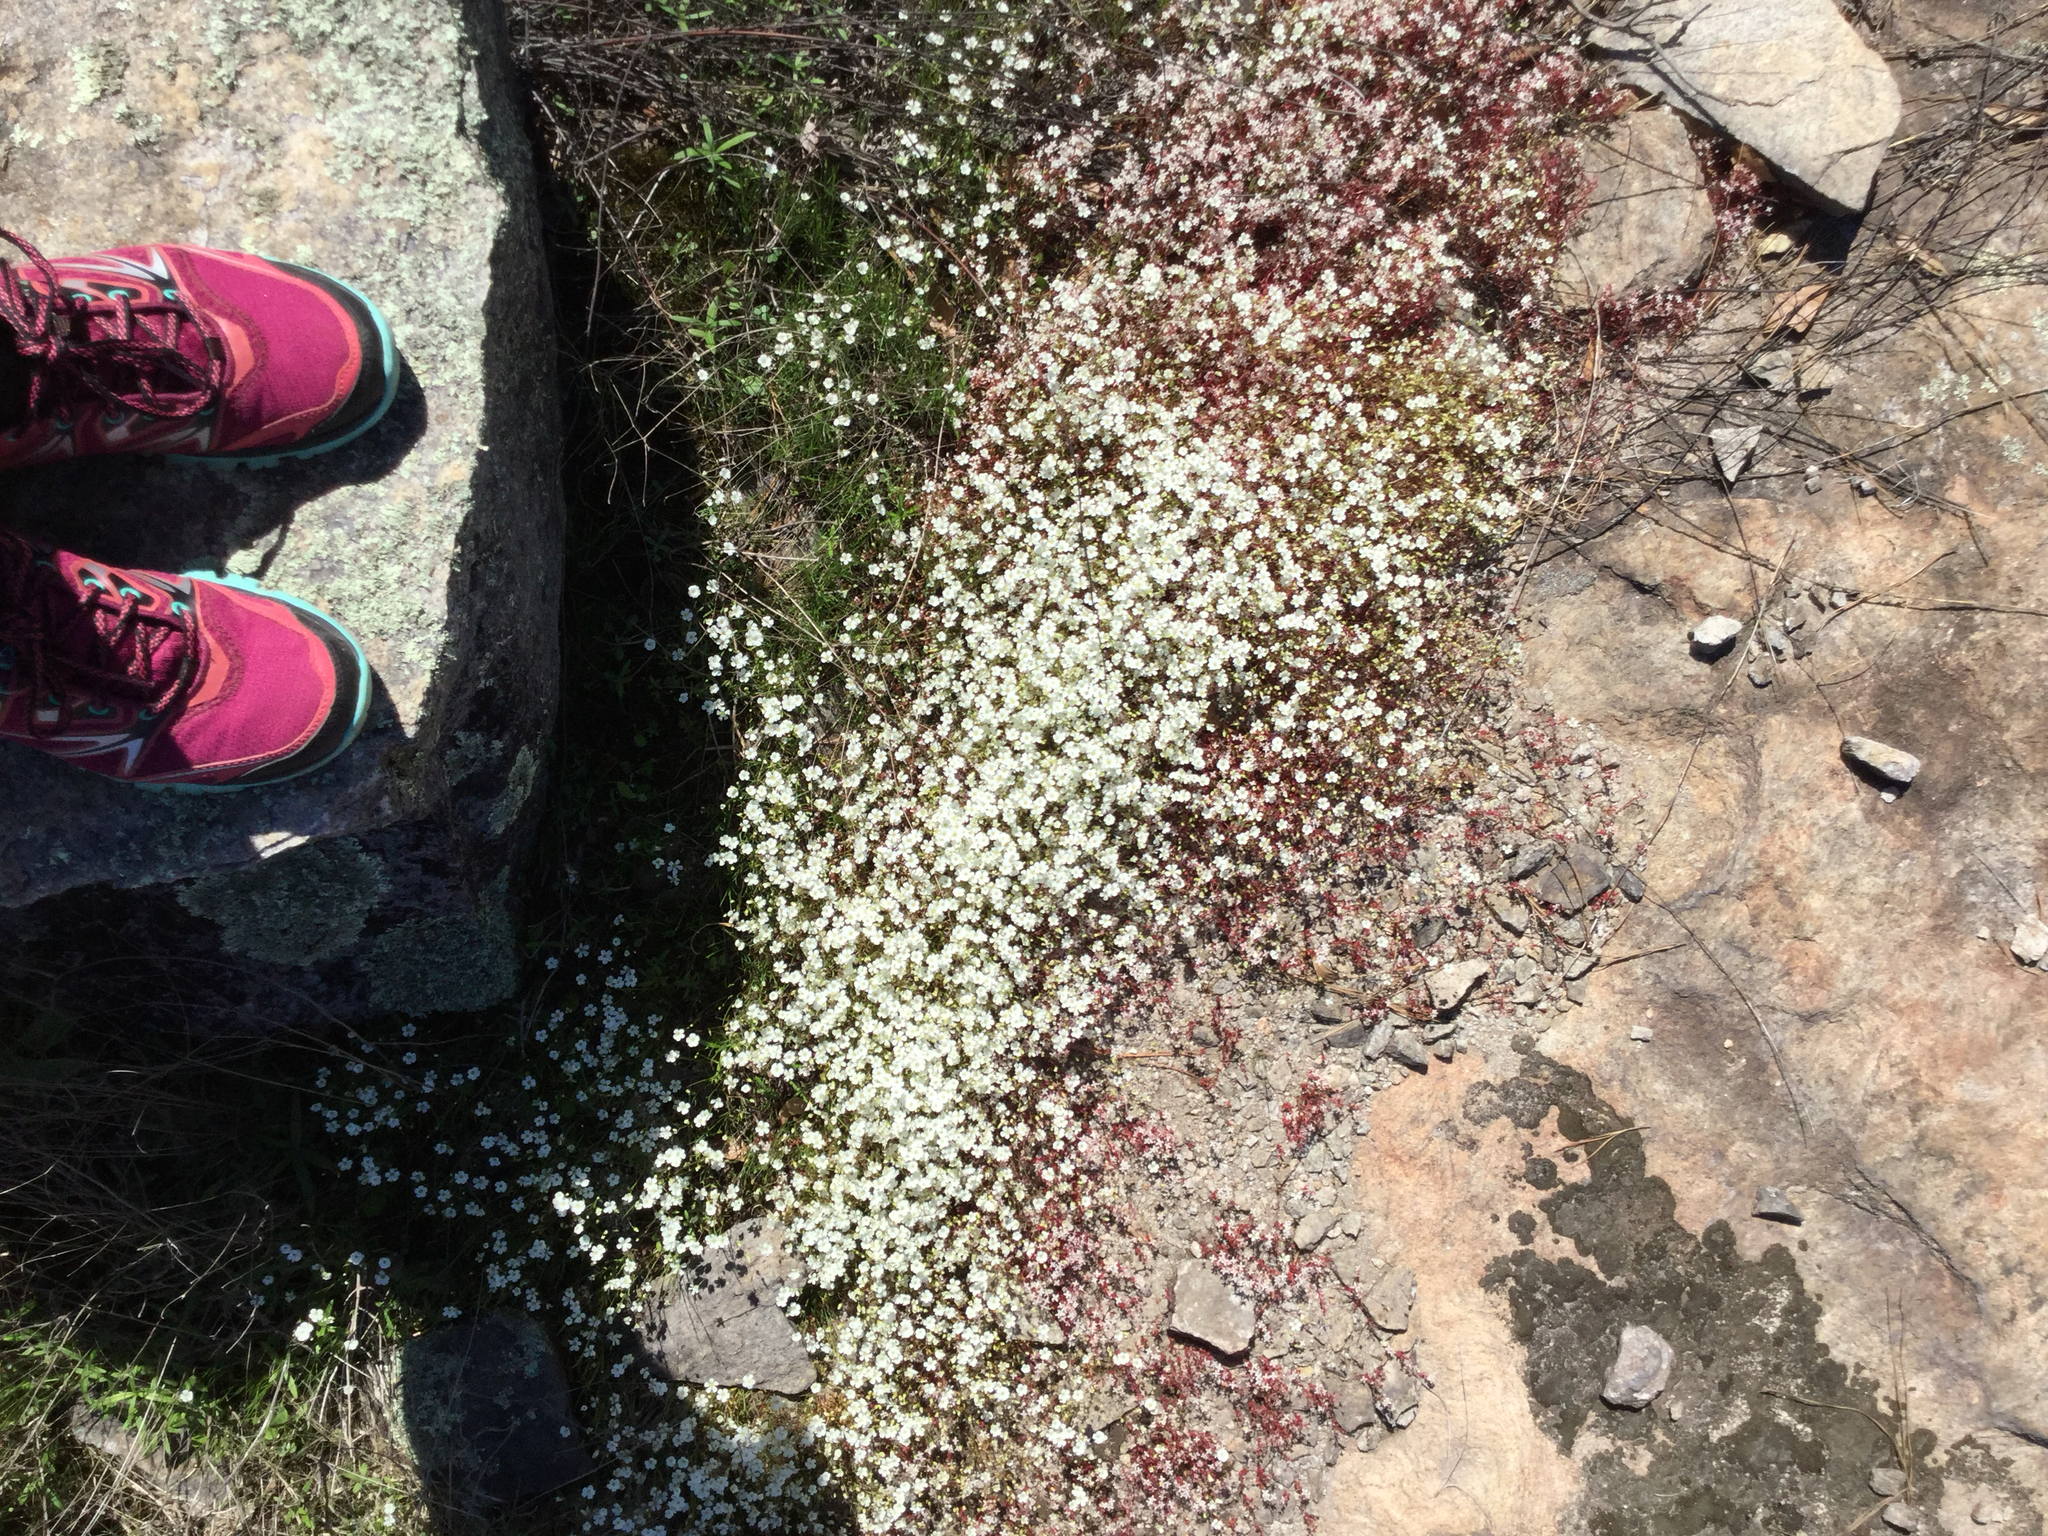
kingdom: Plantae
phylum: Tracheophyta
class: Magnoliopsida
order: Caryophyllales
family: Caryophyllaceae
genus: Geocarpon
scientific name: Geocarpon uniflorum
